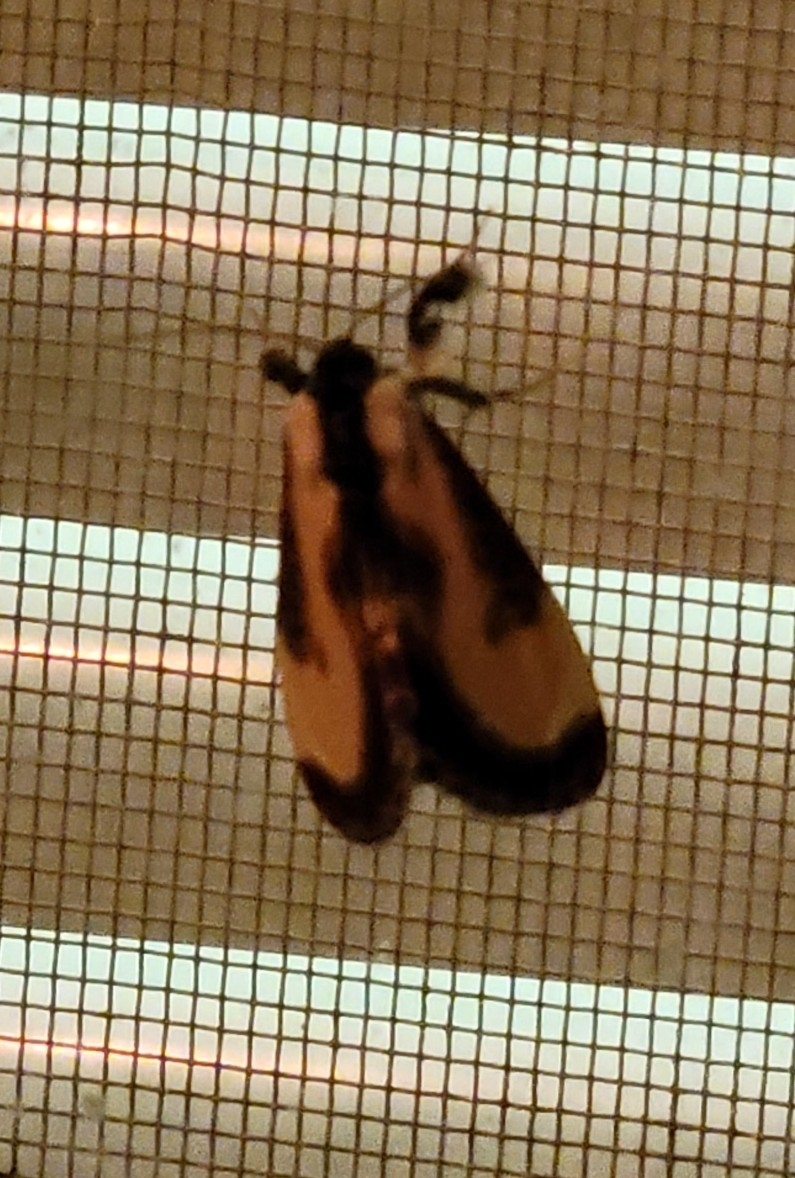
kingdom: Animalia
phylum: Arthropoda
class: Insecta
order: Lepidoptera
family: Noctuidae
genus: Eudryas
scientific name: Eudryas grata
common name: Beautiful wood-nymph
